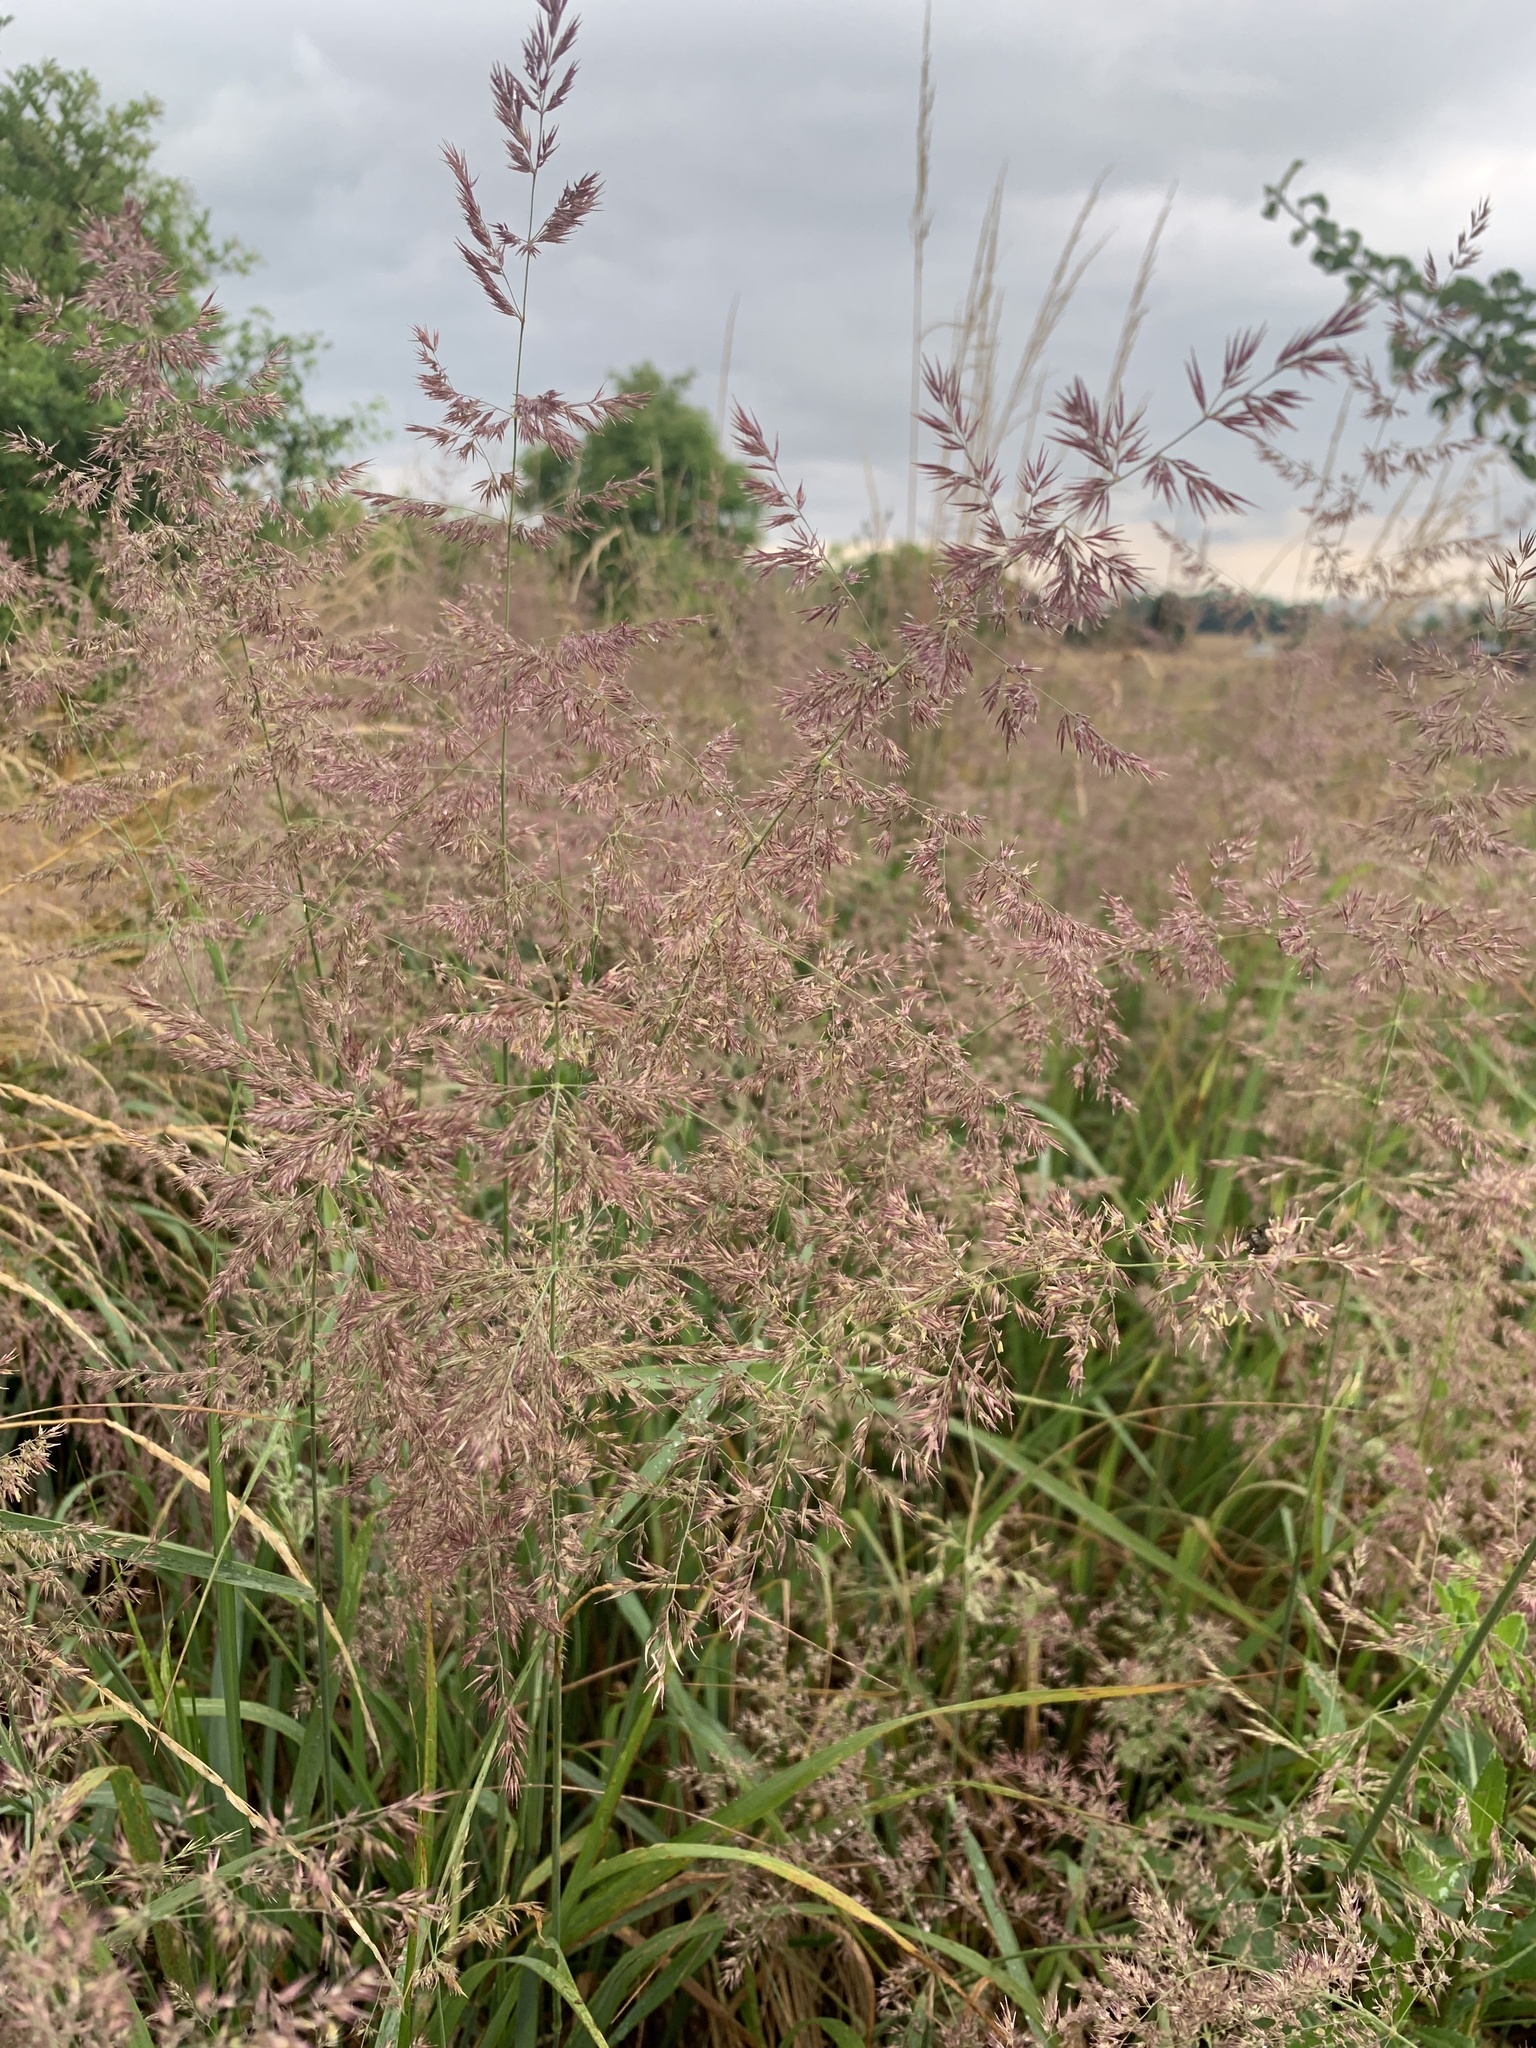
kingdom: Plantae
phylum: Tracheophyta
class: Liliopsida
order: Poales
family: Poaceae
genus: Calamagrostis
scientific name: Calamagrostis epigejos
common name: Wood small-reed
